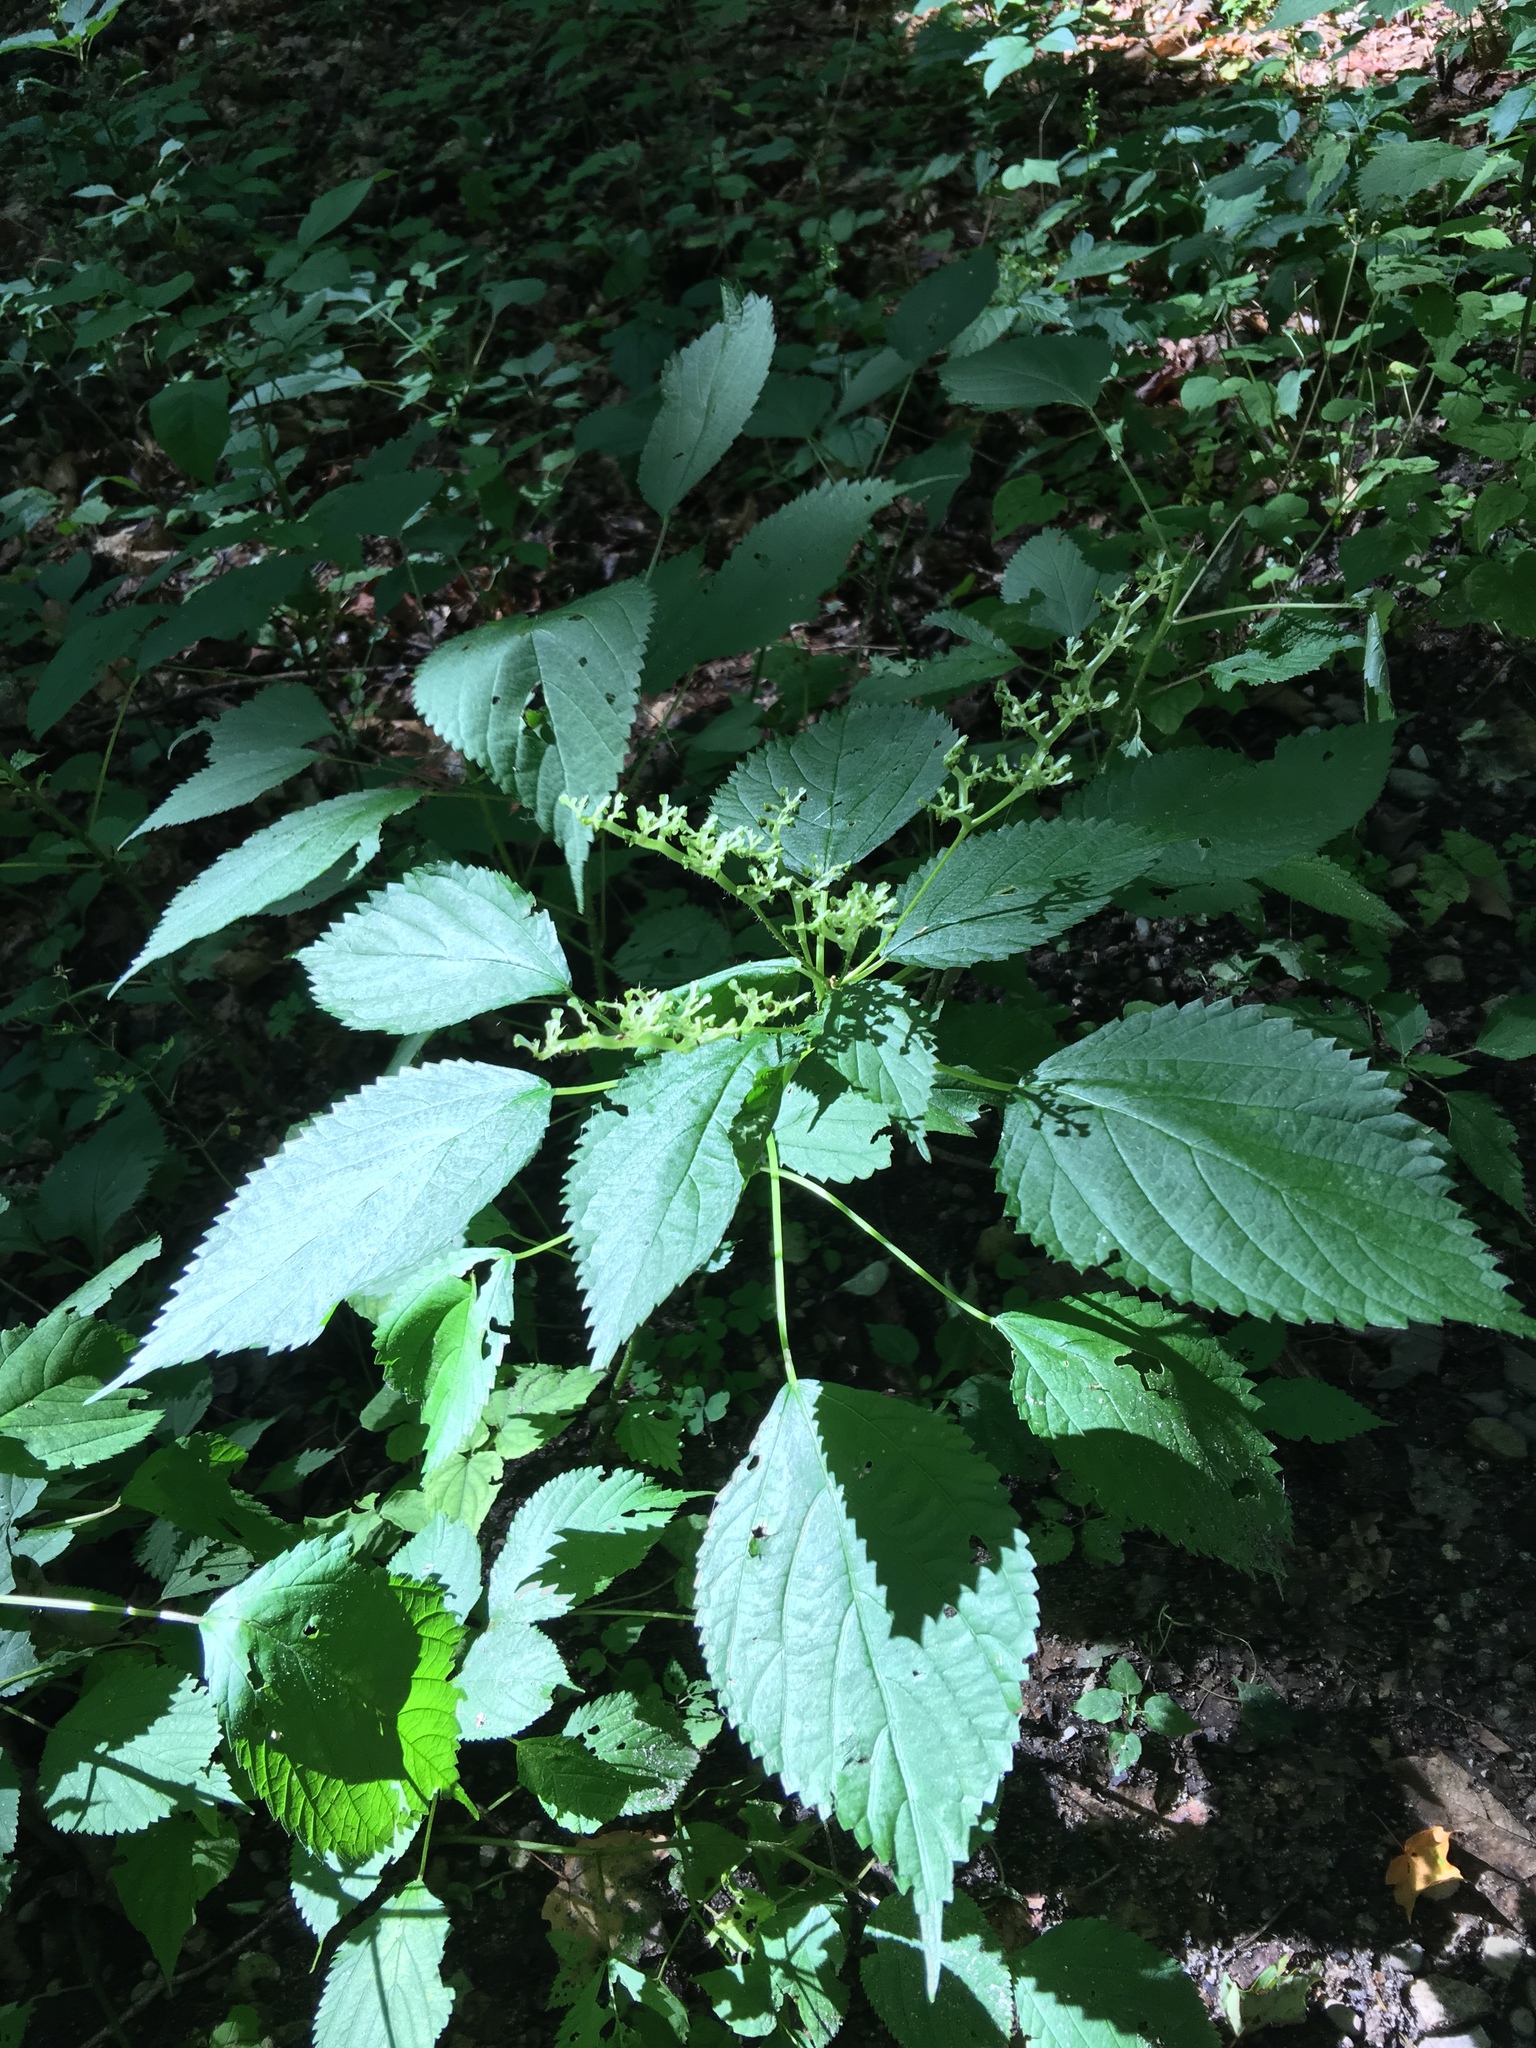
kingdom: Plantae
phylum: Tracheophyta
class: Magnoliopsida
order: Rosales
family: Urticaceae
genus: Laportea
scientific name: Laportea canadensis
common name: Canada nettle
